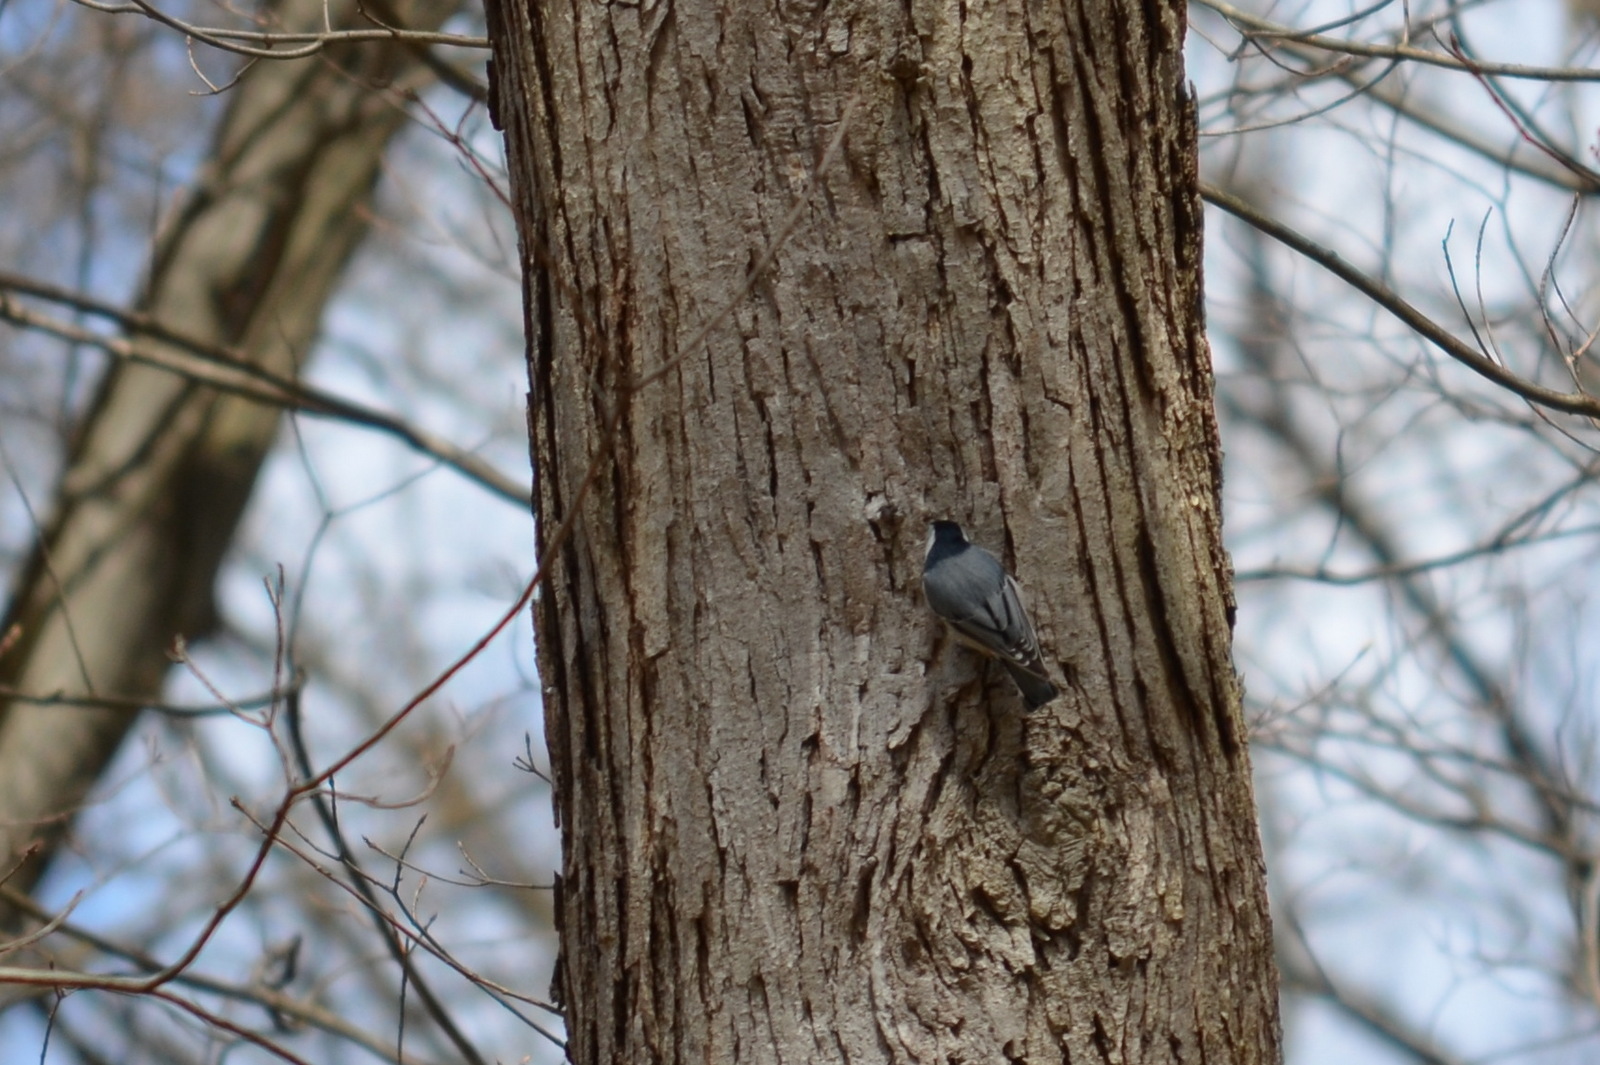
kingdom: Animalia
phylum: Chordata
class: Aves
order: Passeriformes
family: Sittidae
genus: Sitta
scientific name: Sitta carolinensis
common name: White-breasted nuthatch
